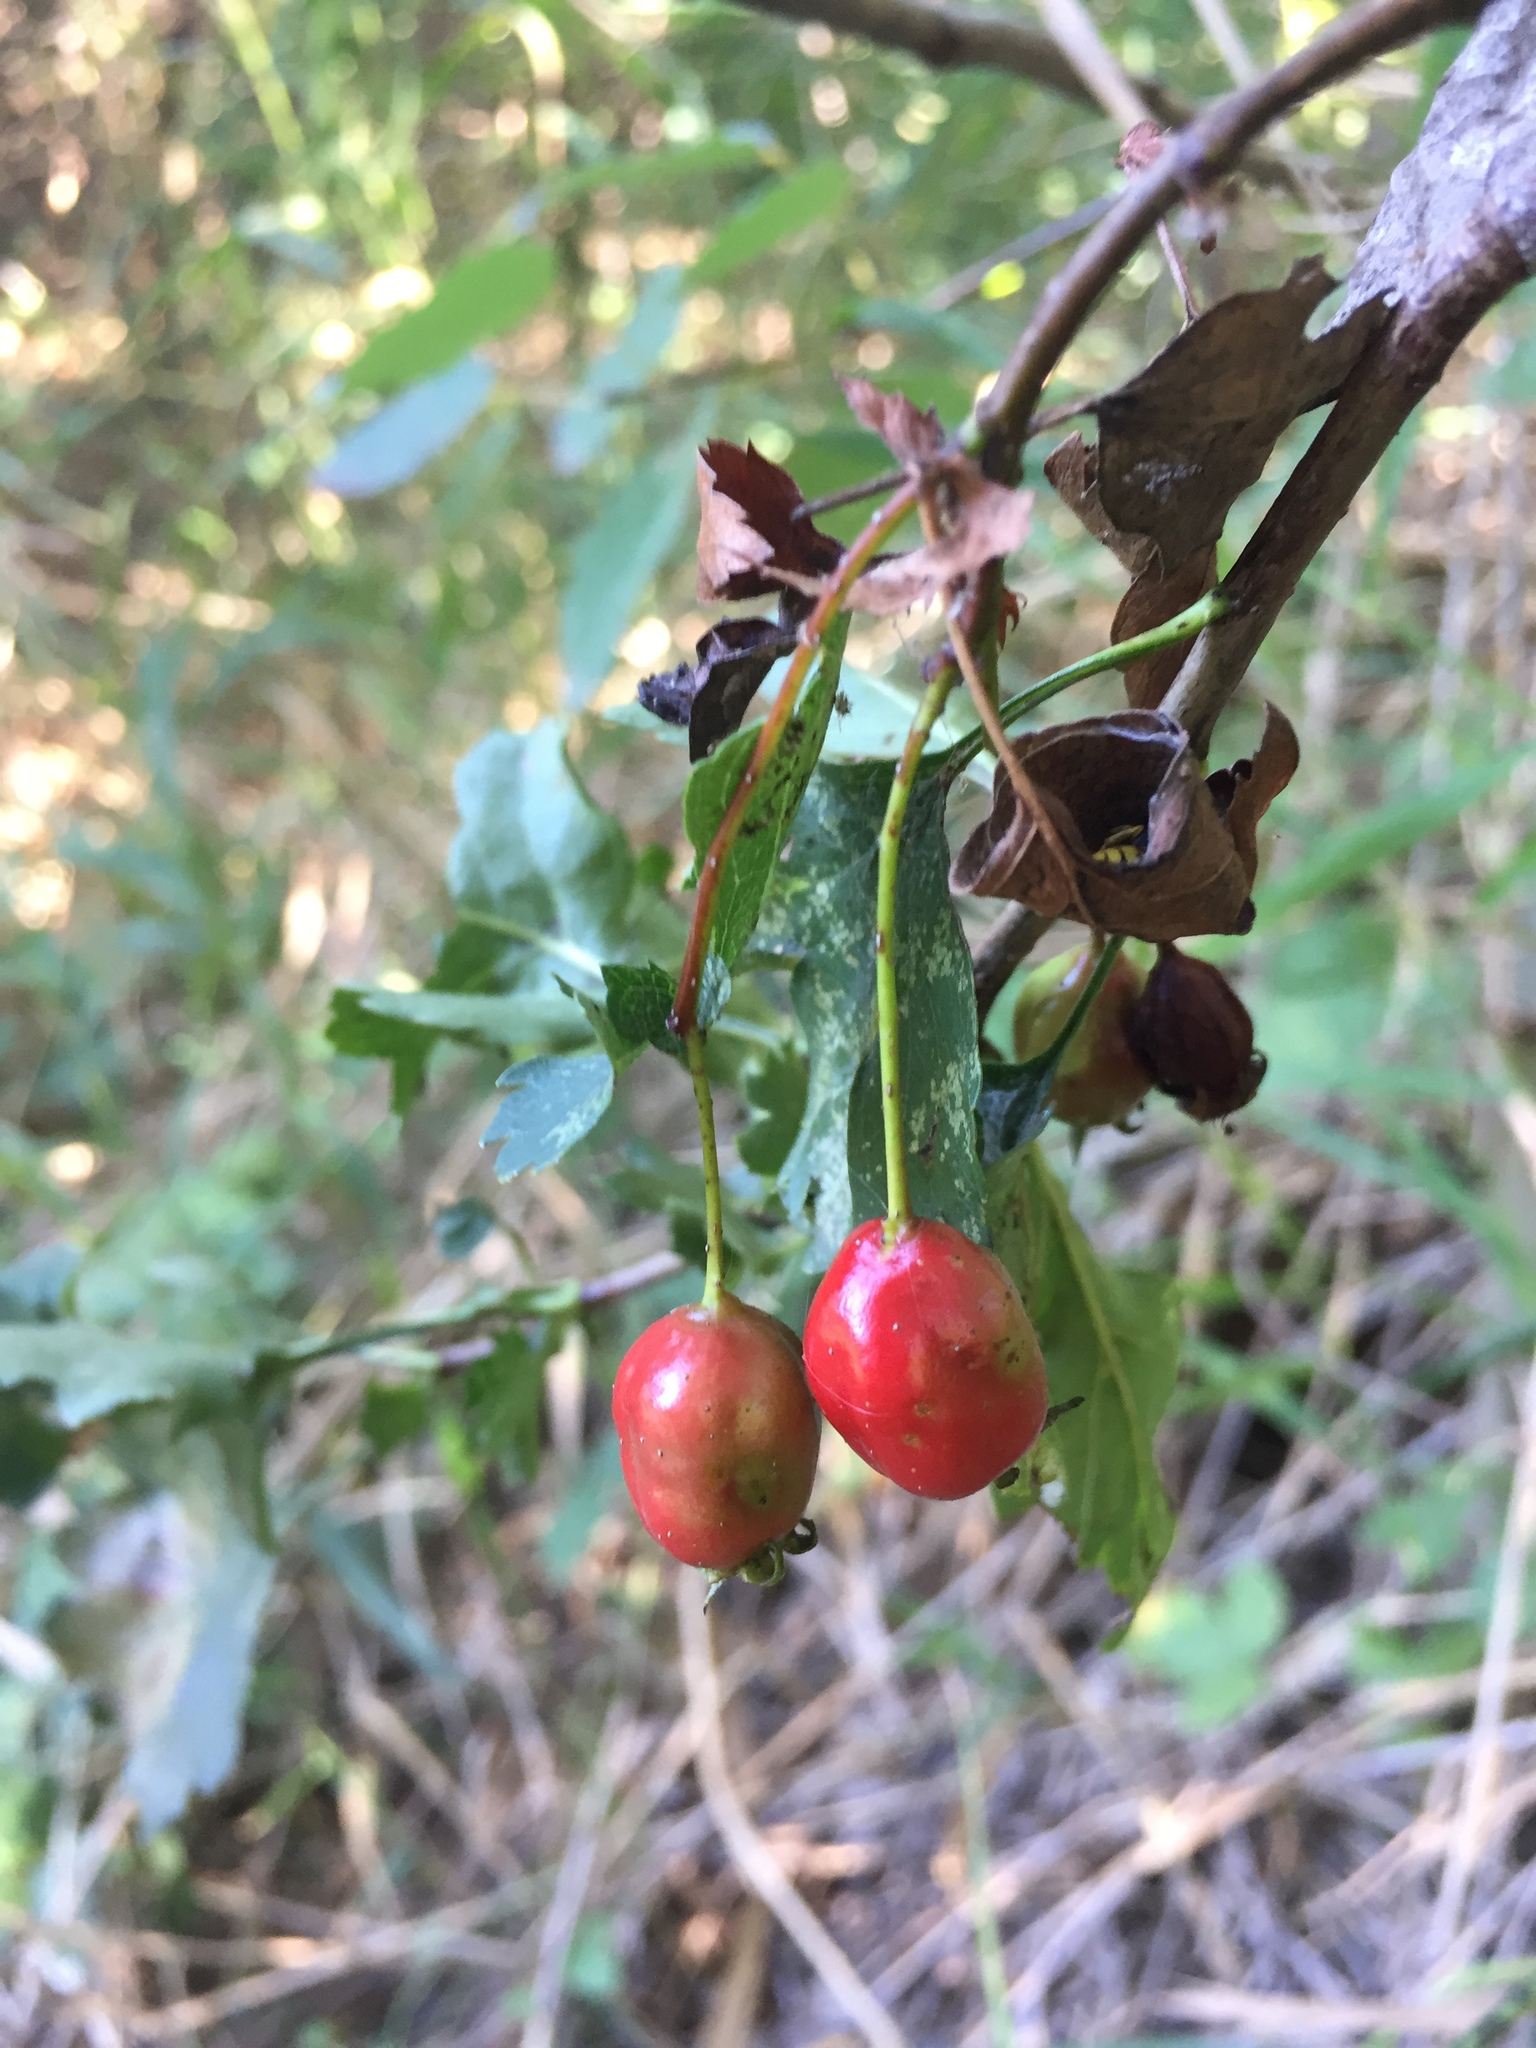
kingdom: Plantae
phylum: Tracheophyta
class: Magnoliopsida
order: Rosales
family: Rosaceae
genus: Crataegus
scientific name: Crataegus monogyna
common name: Hawthorn
